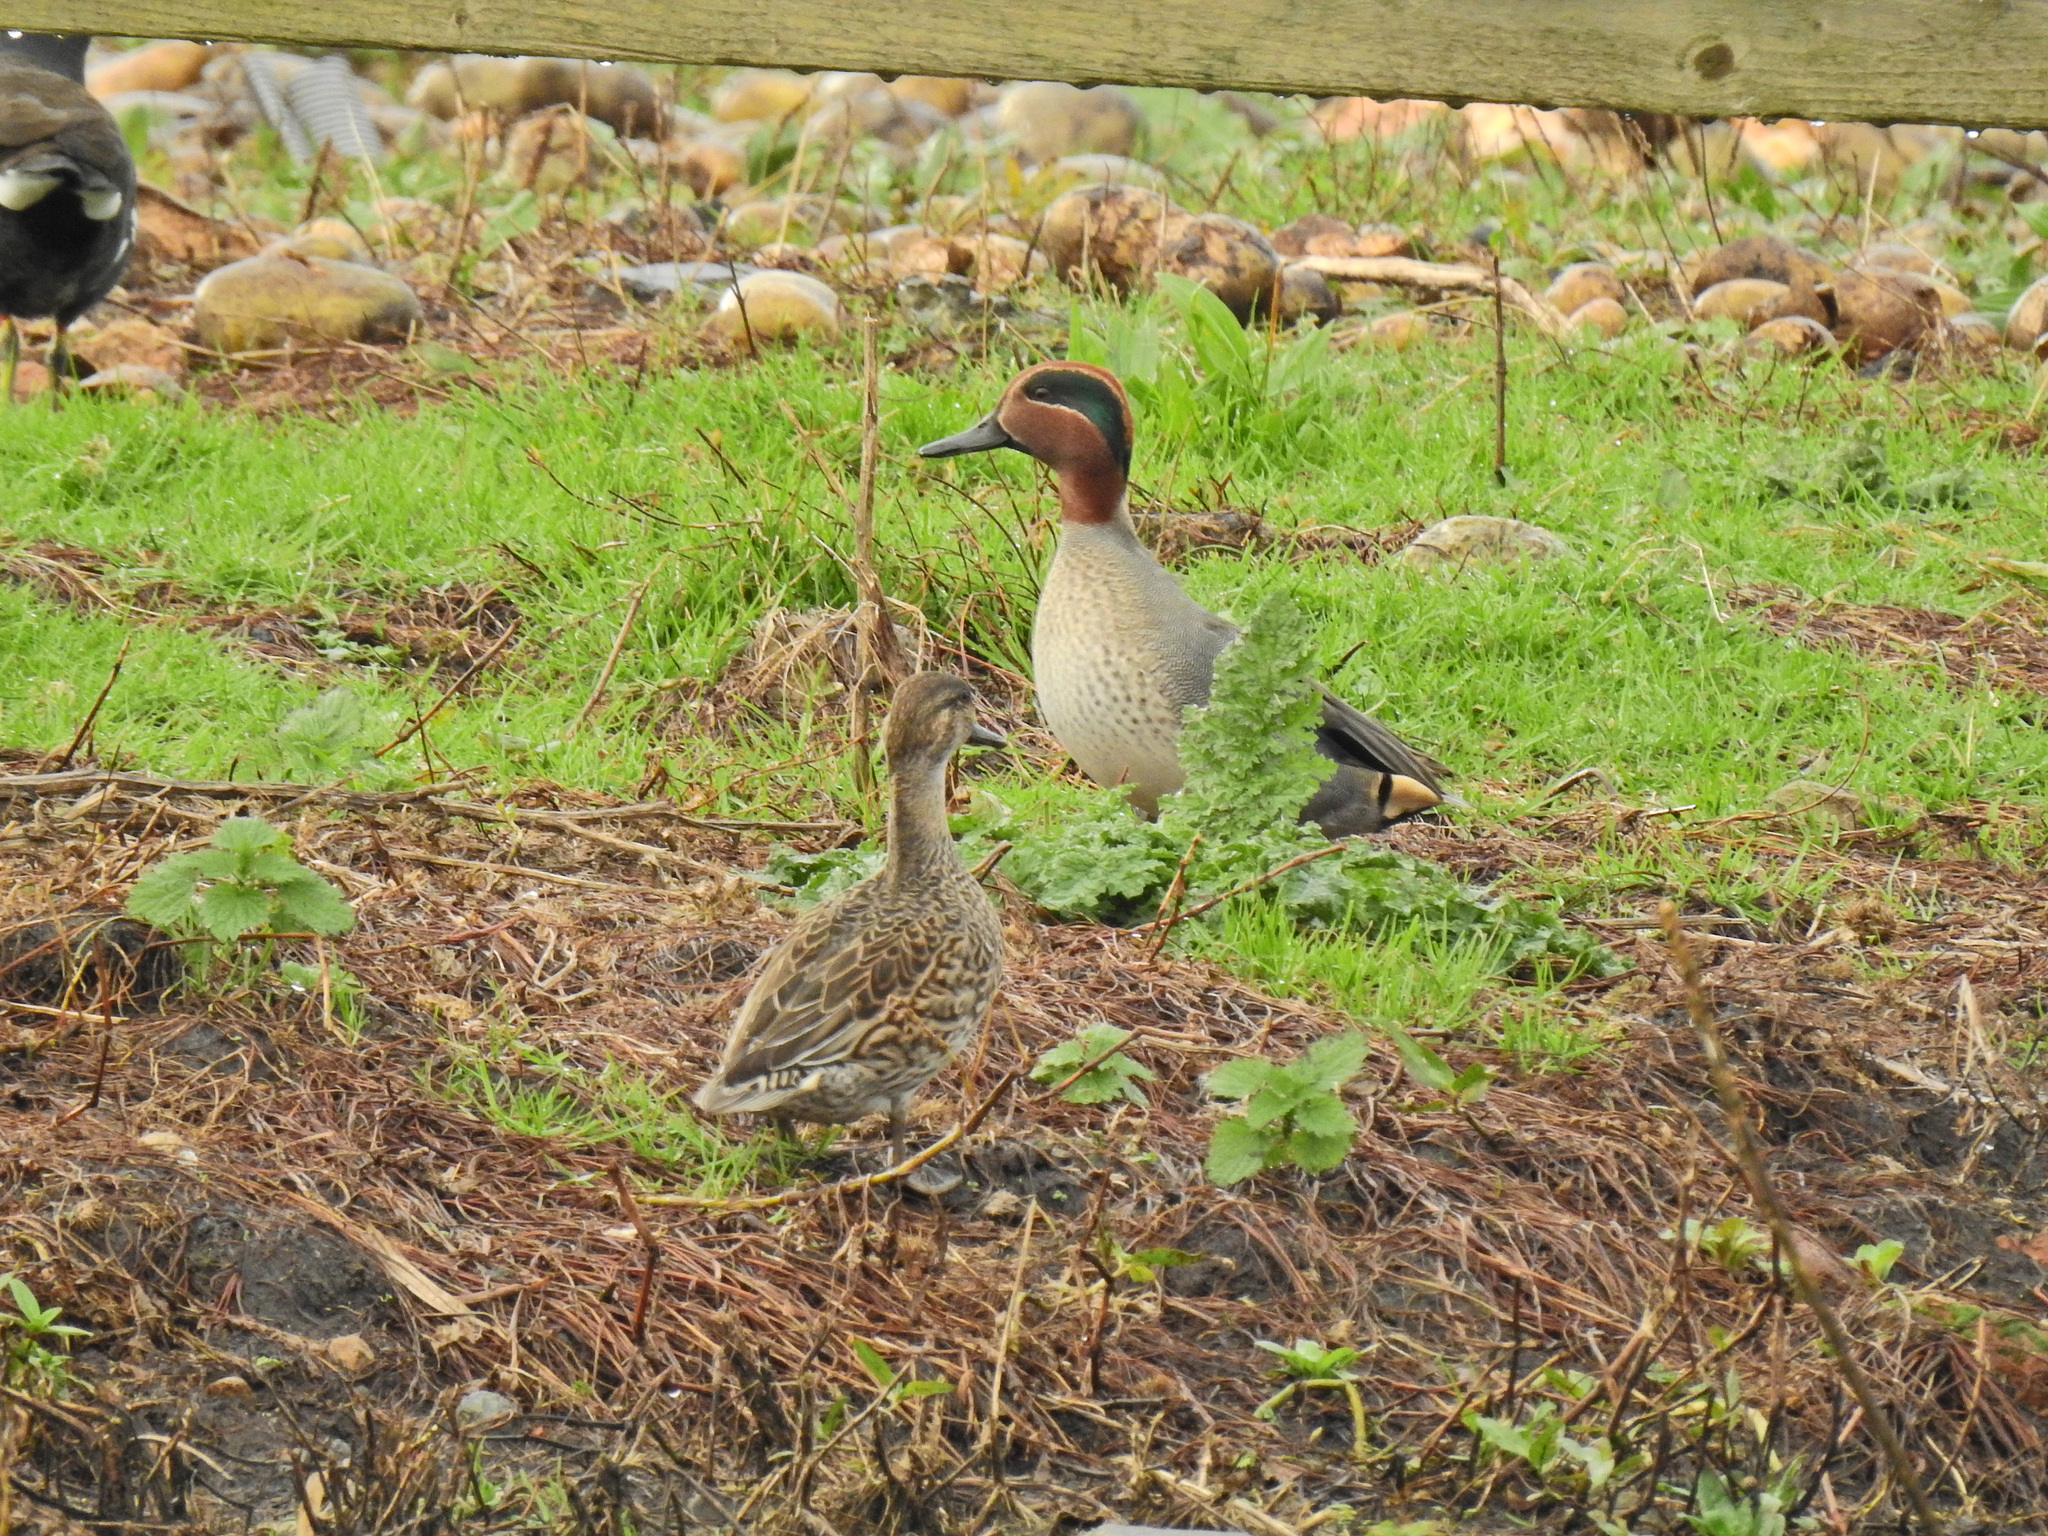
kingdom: Animalia
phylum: Chordata
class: Aves
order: Anseriformes
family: Anatidae
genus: Anas
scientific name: Anas crecca
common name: Eurasian teal
